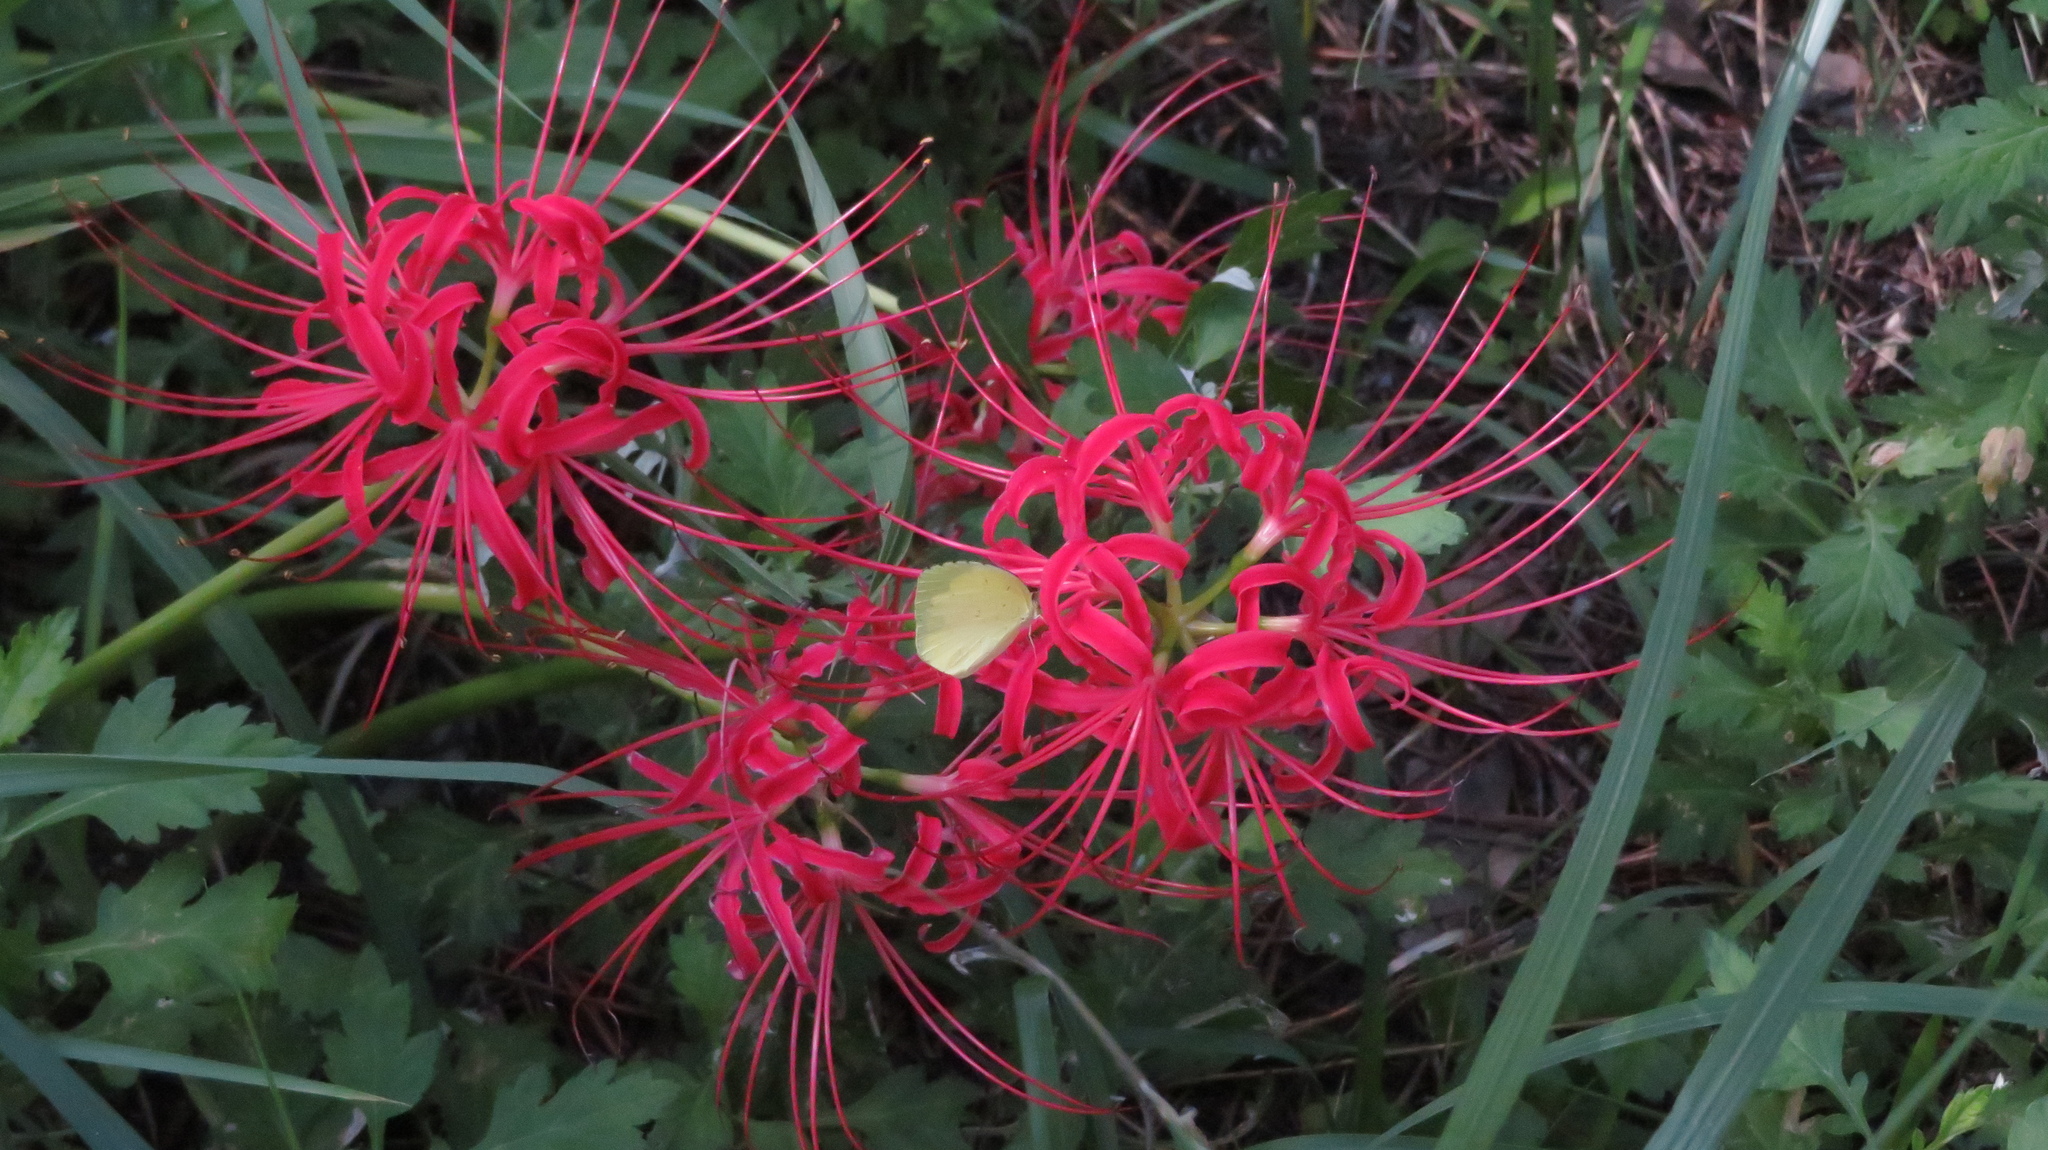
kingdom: Plantae
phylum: Tracheophyta
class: Liliopsida
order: Asparagales
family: Amaryllidaceae
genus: Lycoris
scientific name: Lycoris radiata
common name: Red spider lily
